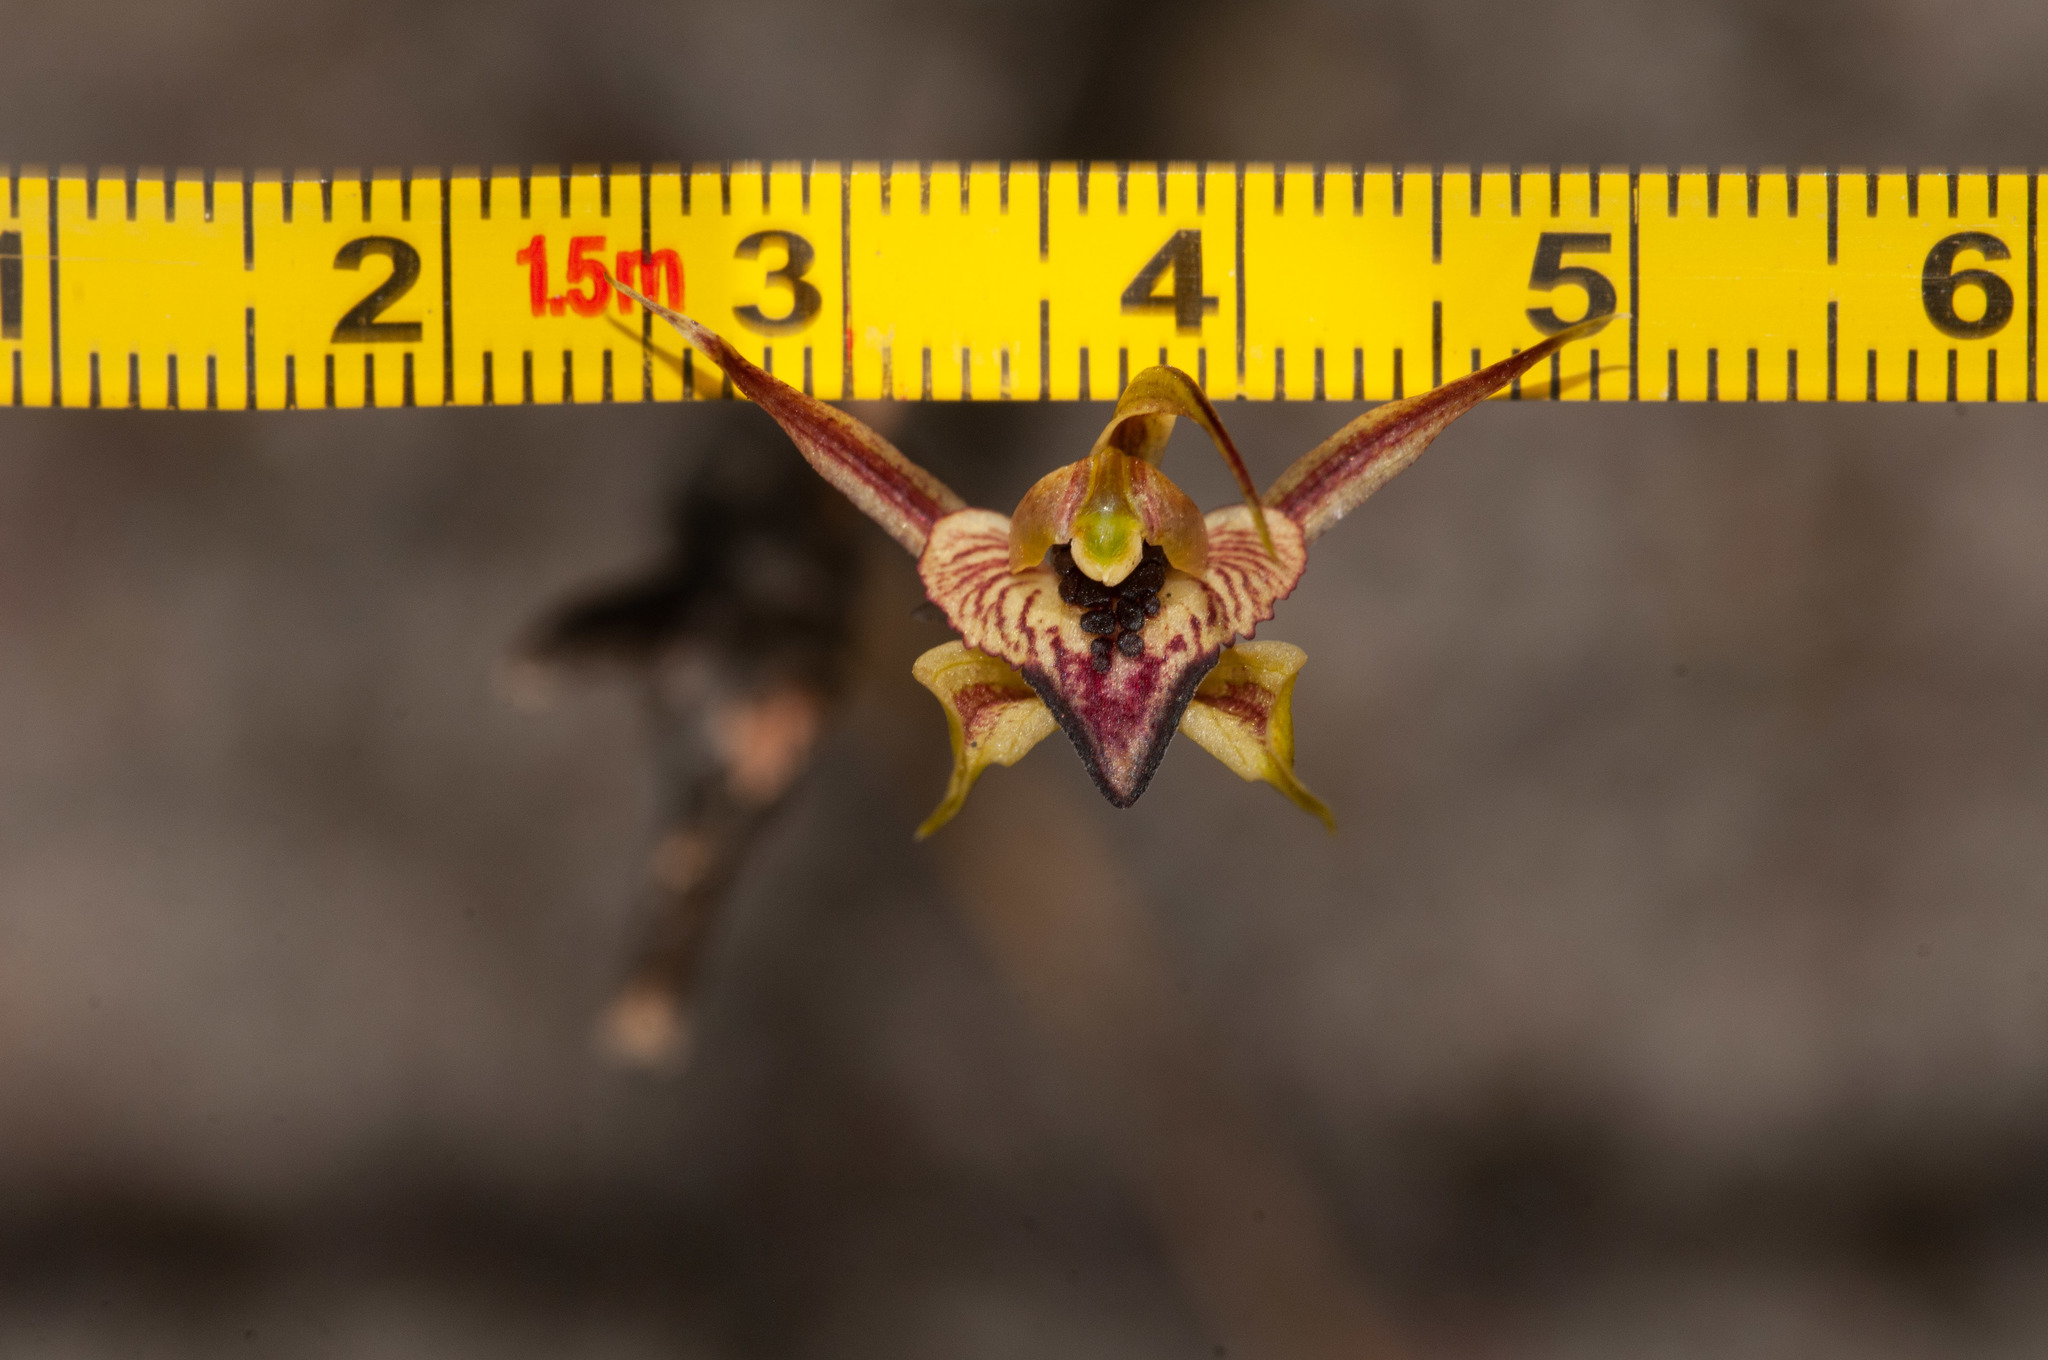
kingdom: Plantae
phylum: Tracheophyta
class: Liliopsida
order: Asparagales
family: Orchidaceae
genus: Caladenia
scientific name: Caladenia cardiochila
